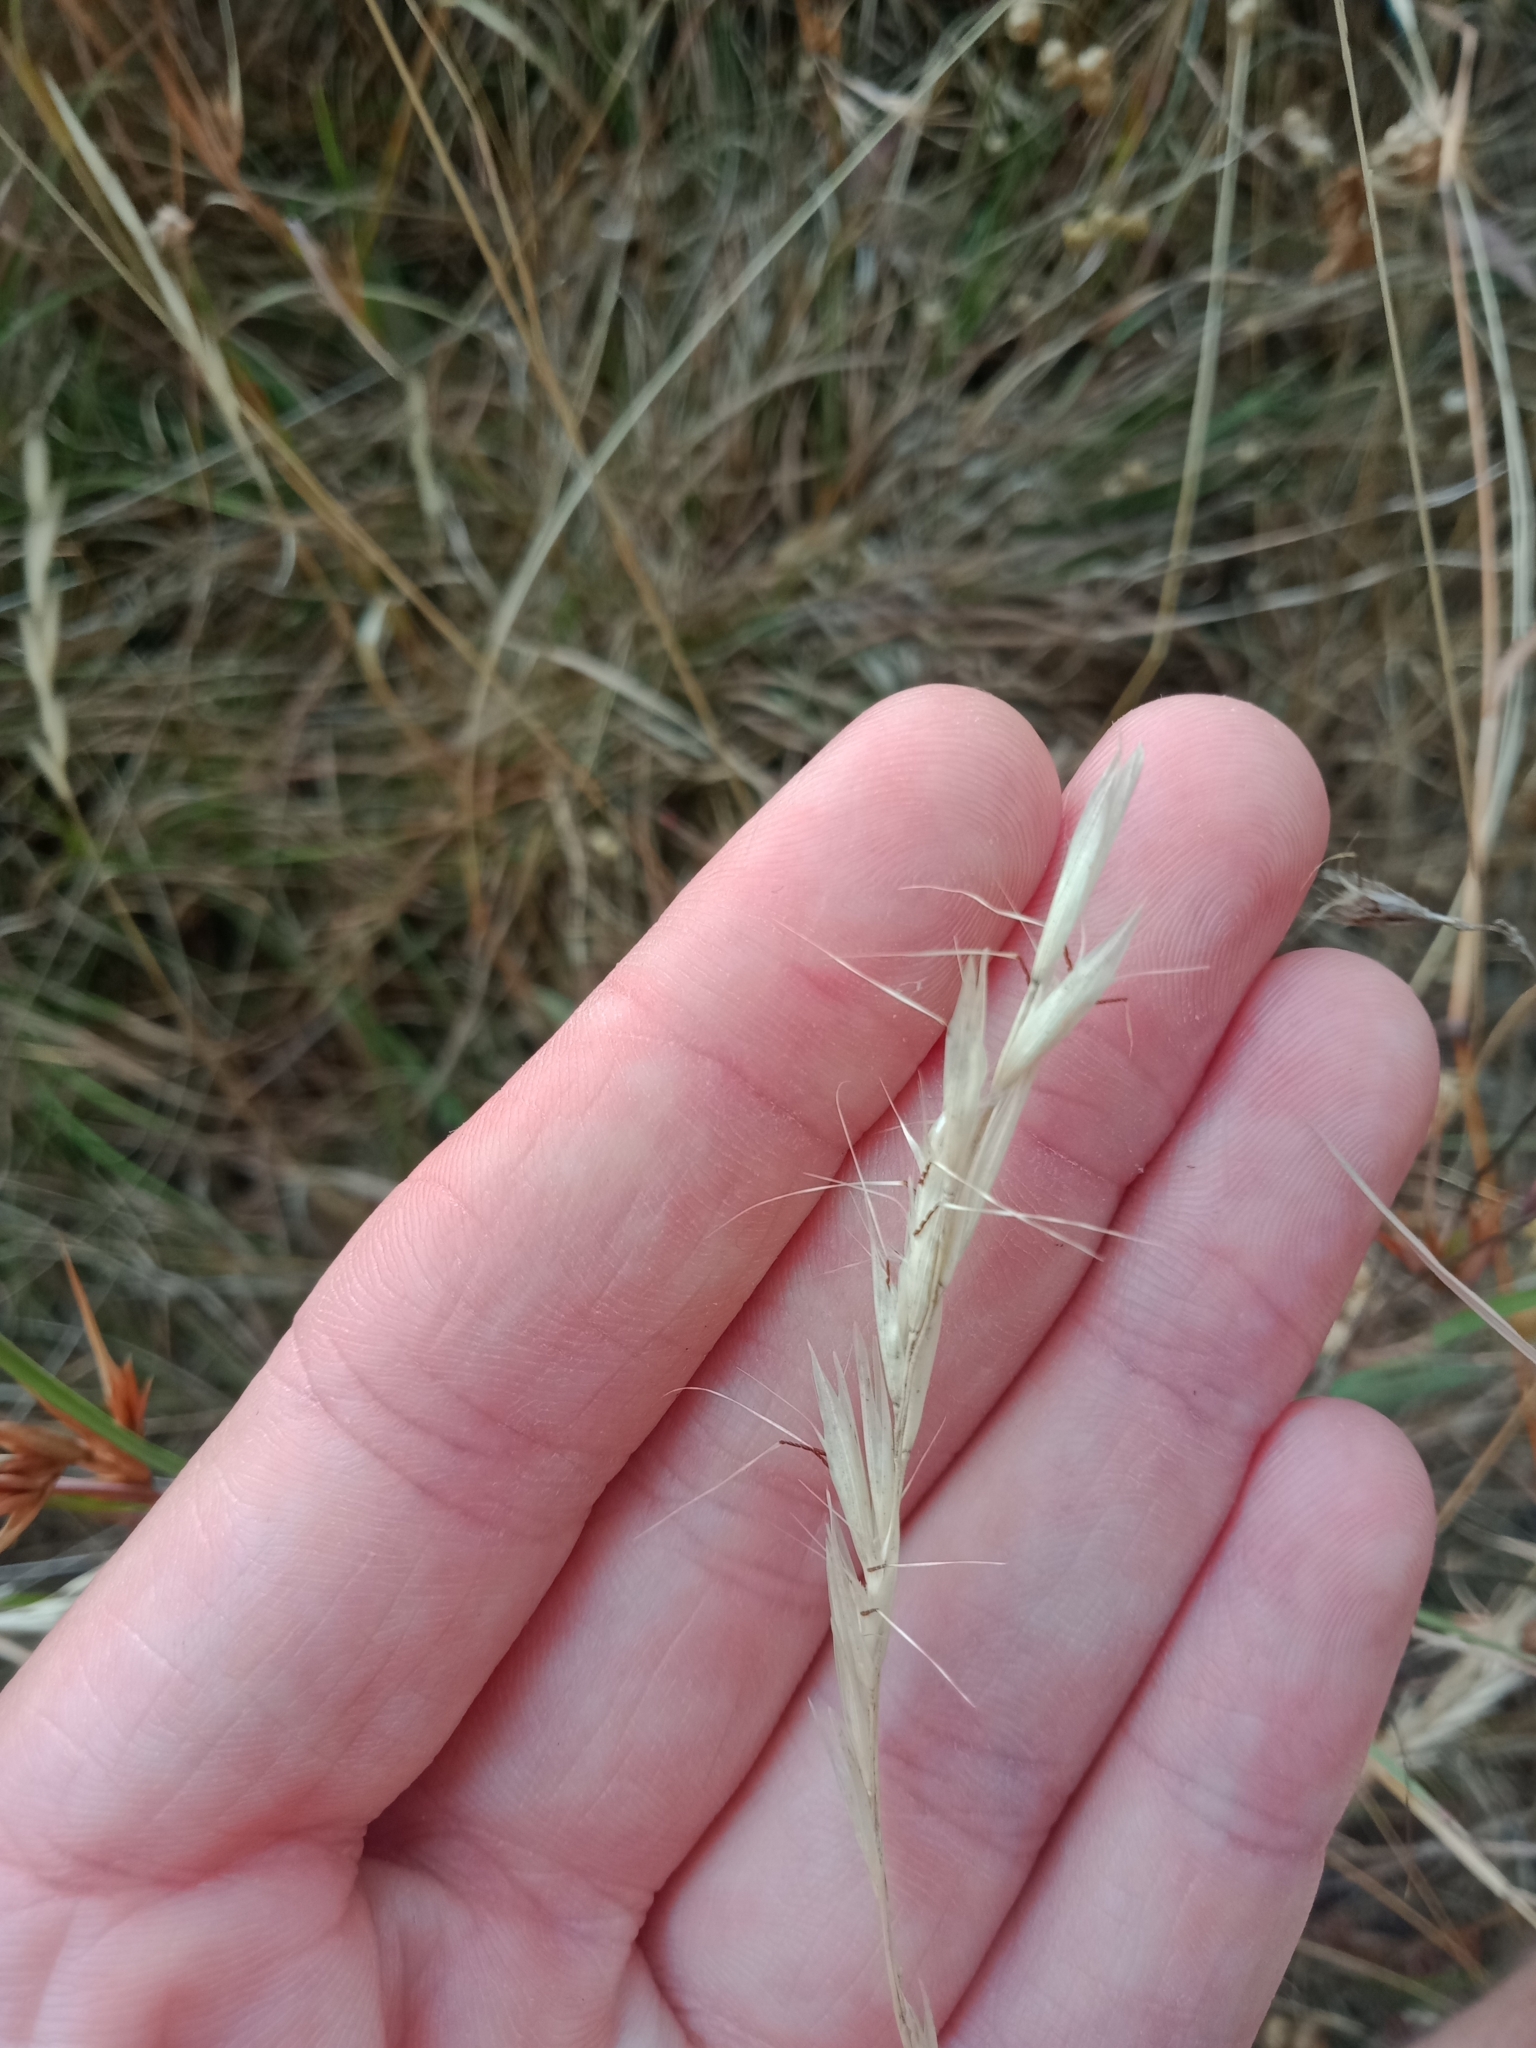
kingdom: Plantae
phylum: Tracheophyta
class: Liliopsida
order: Poales
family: Poaceae
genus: Rytidosperma
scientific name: Rytidosperma racemosum
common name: Wallaby-grass
